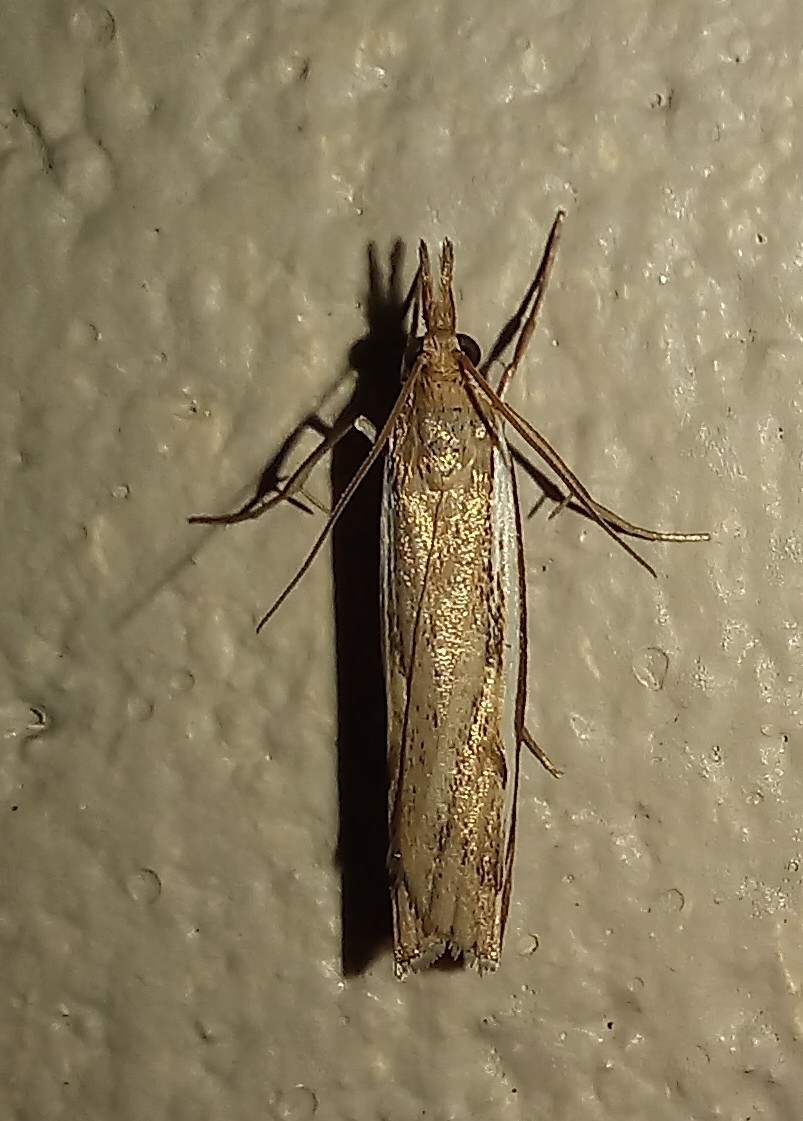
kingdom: Animalia
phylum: Arthropoda
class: Insecta
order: Lepidoptera
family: Crambidae
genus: Orocrambus
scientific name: Orocrambus flexuosellus
